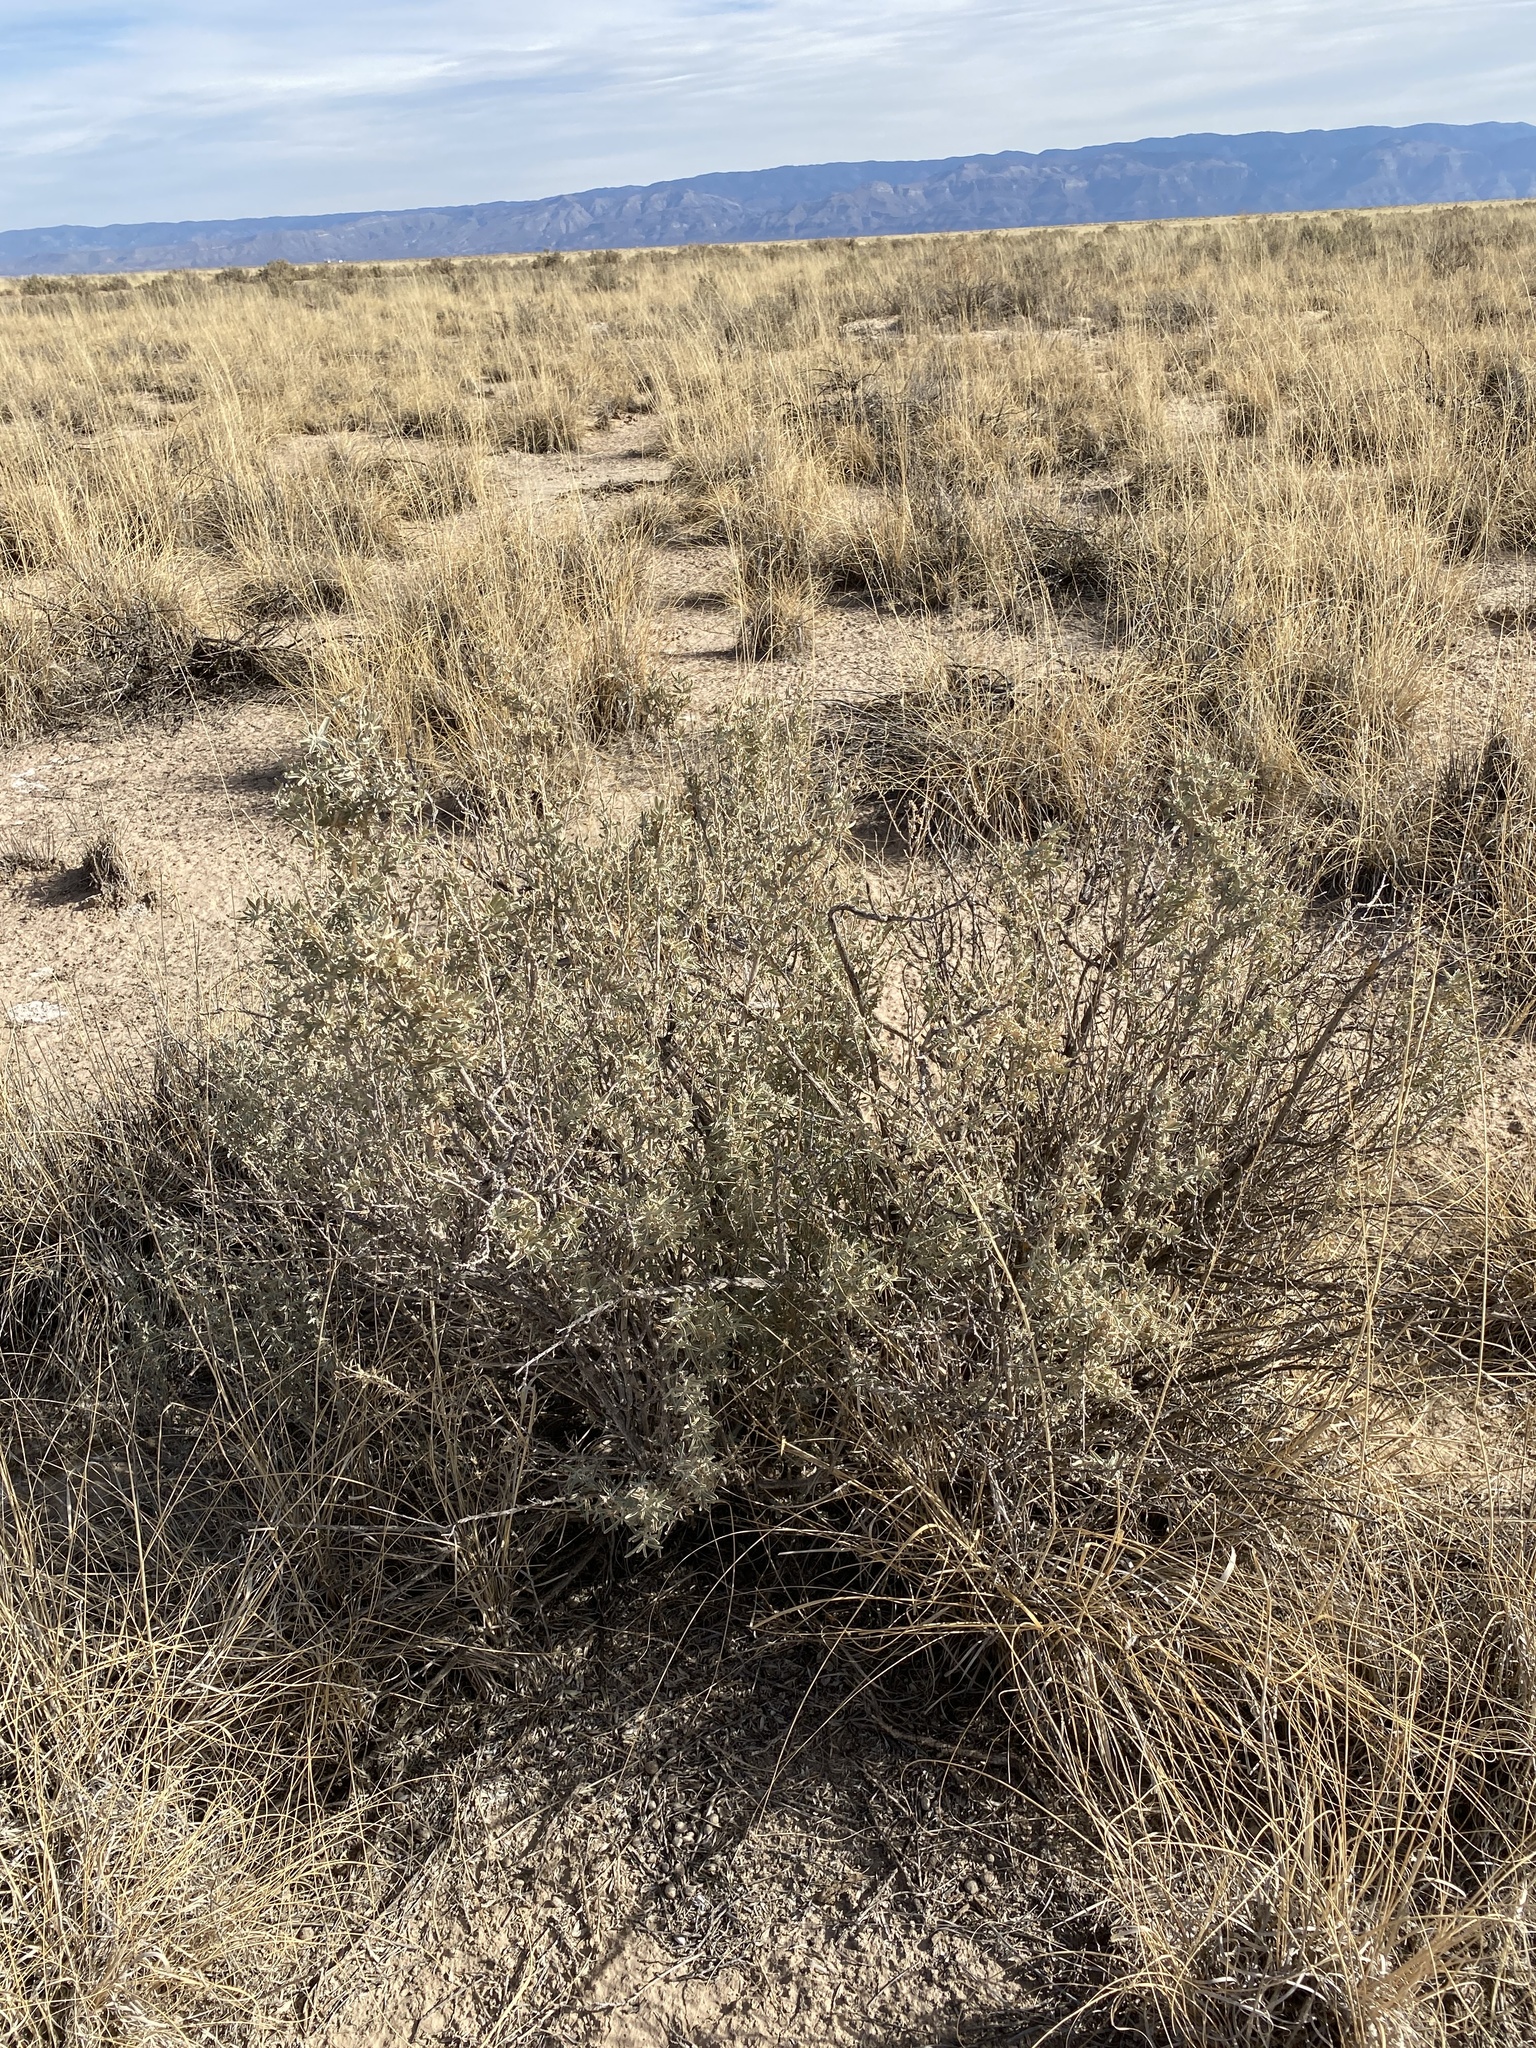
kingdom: Plantae
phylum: Tracheophyta
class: Magnoliopsida
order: Caryophyllales
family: Amaranthaceae
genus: Atriplex
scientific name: Atriplex canescens
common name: Four-wing saltbush
